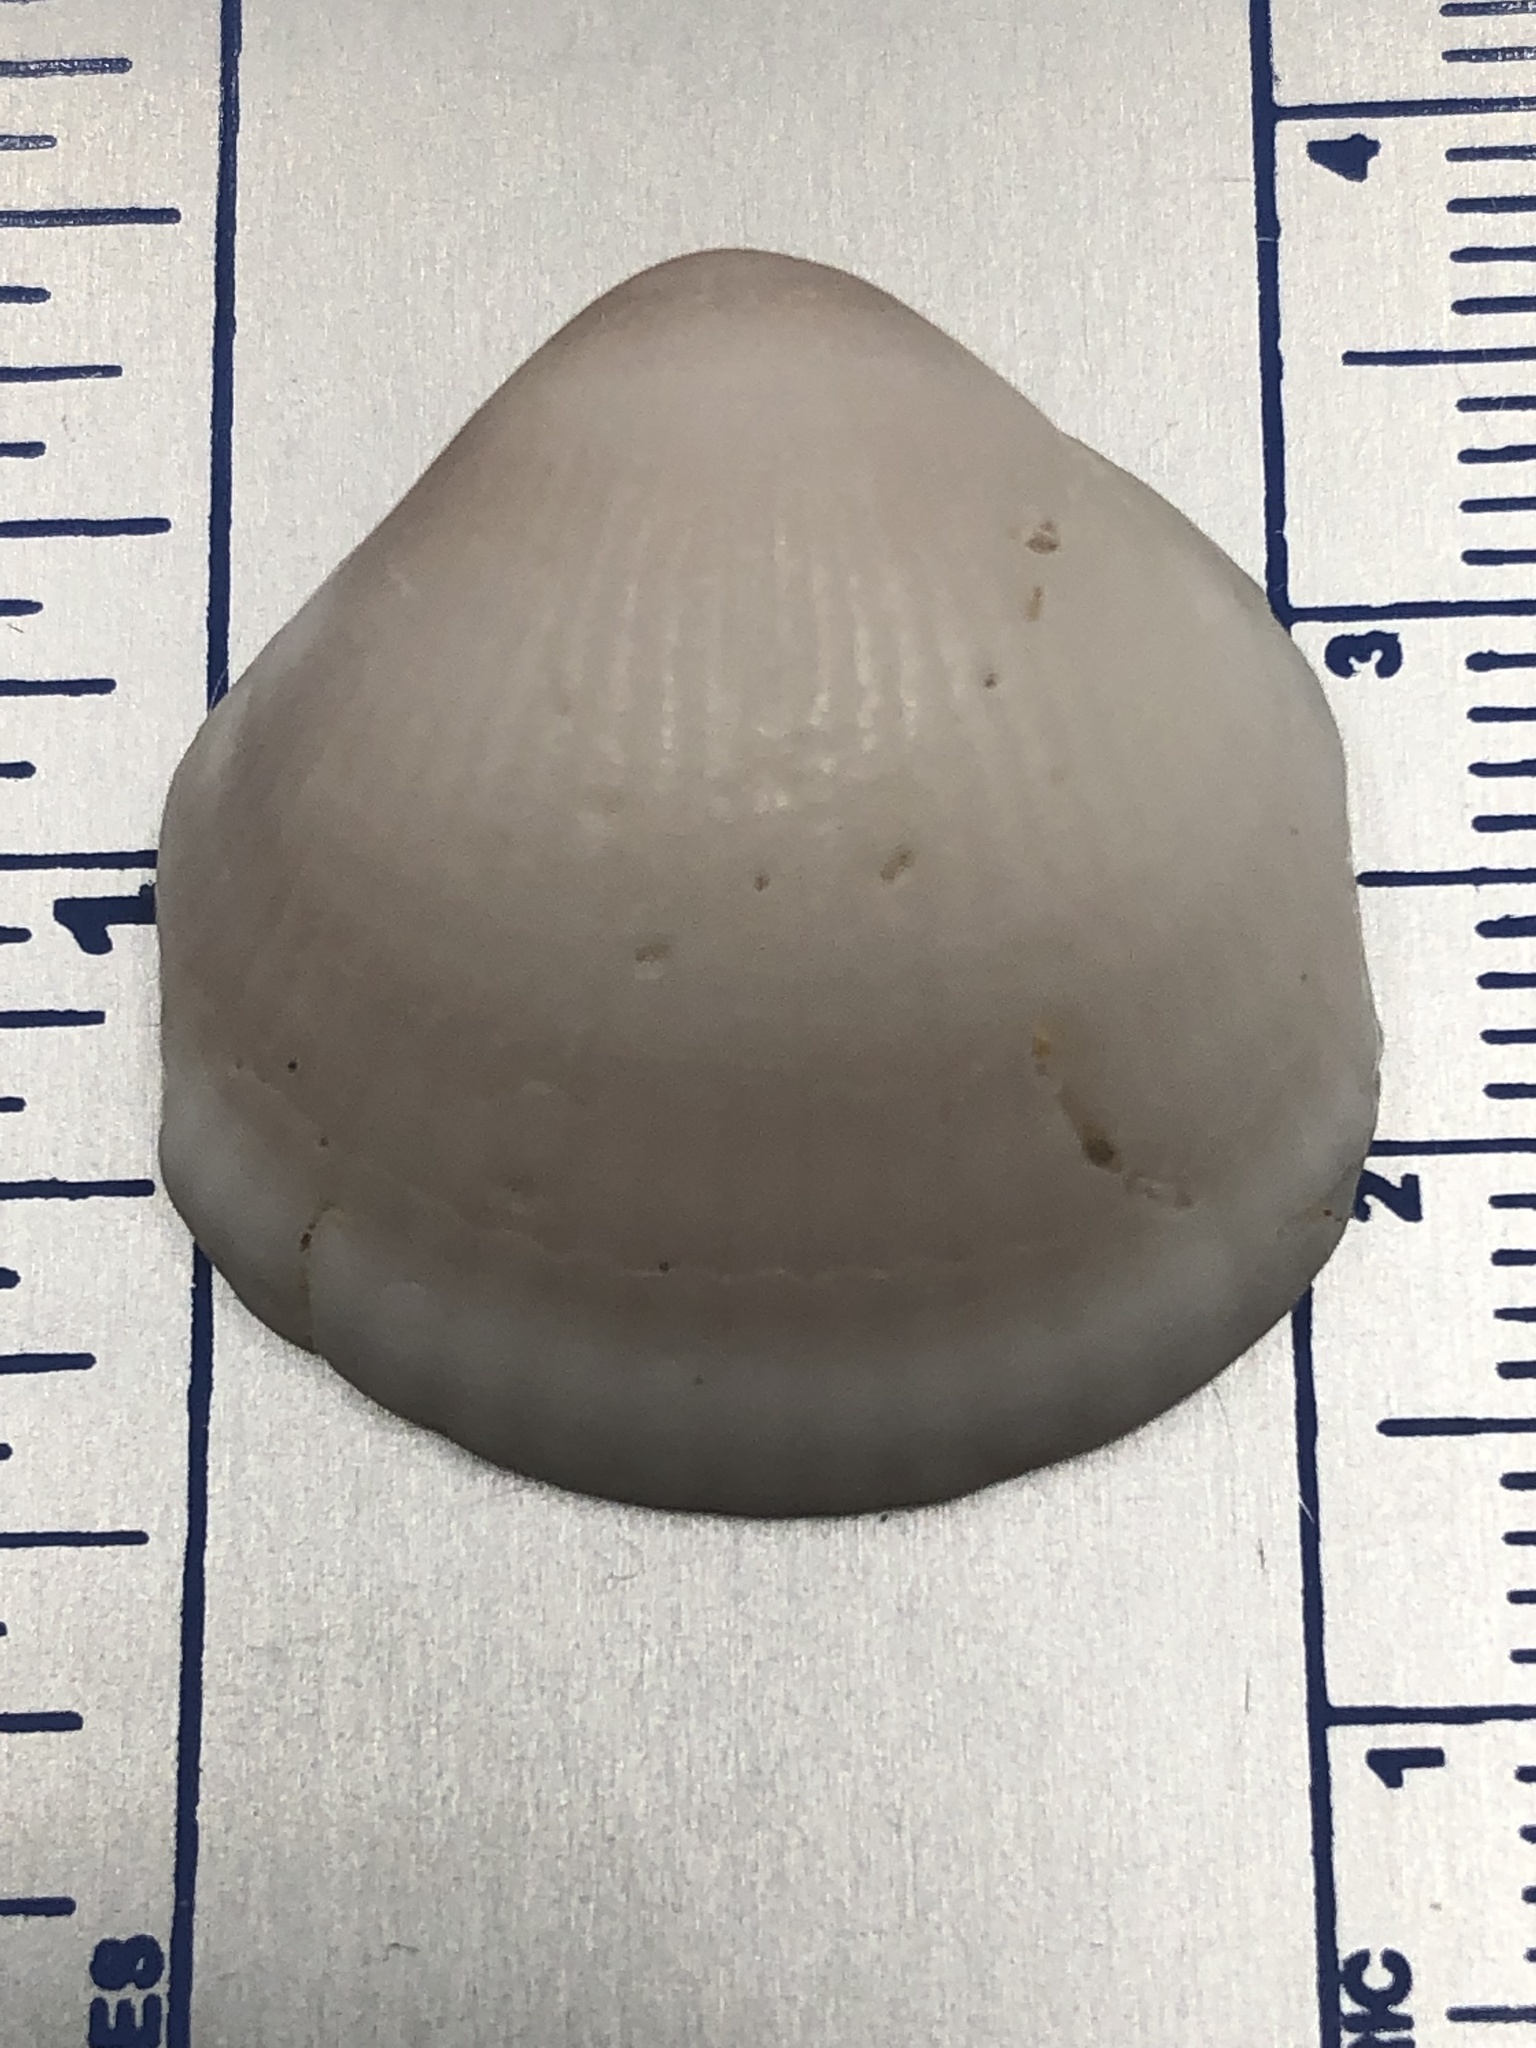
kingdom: Animalia
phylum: Mollusca
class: Bivalvia
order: Arcida
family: Glycymerididae
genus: Glycymeris
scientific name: Glycymeris spectralis
